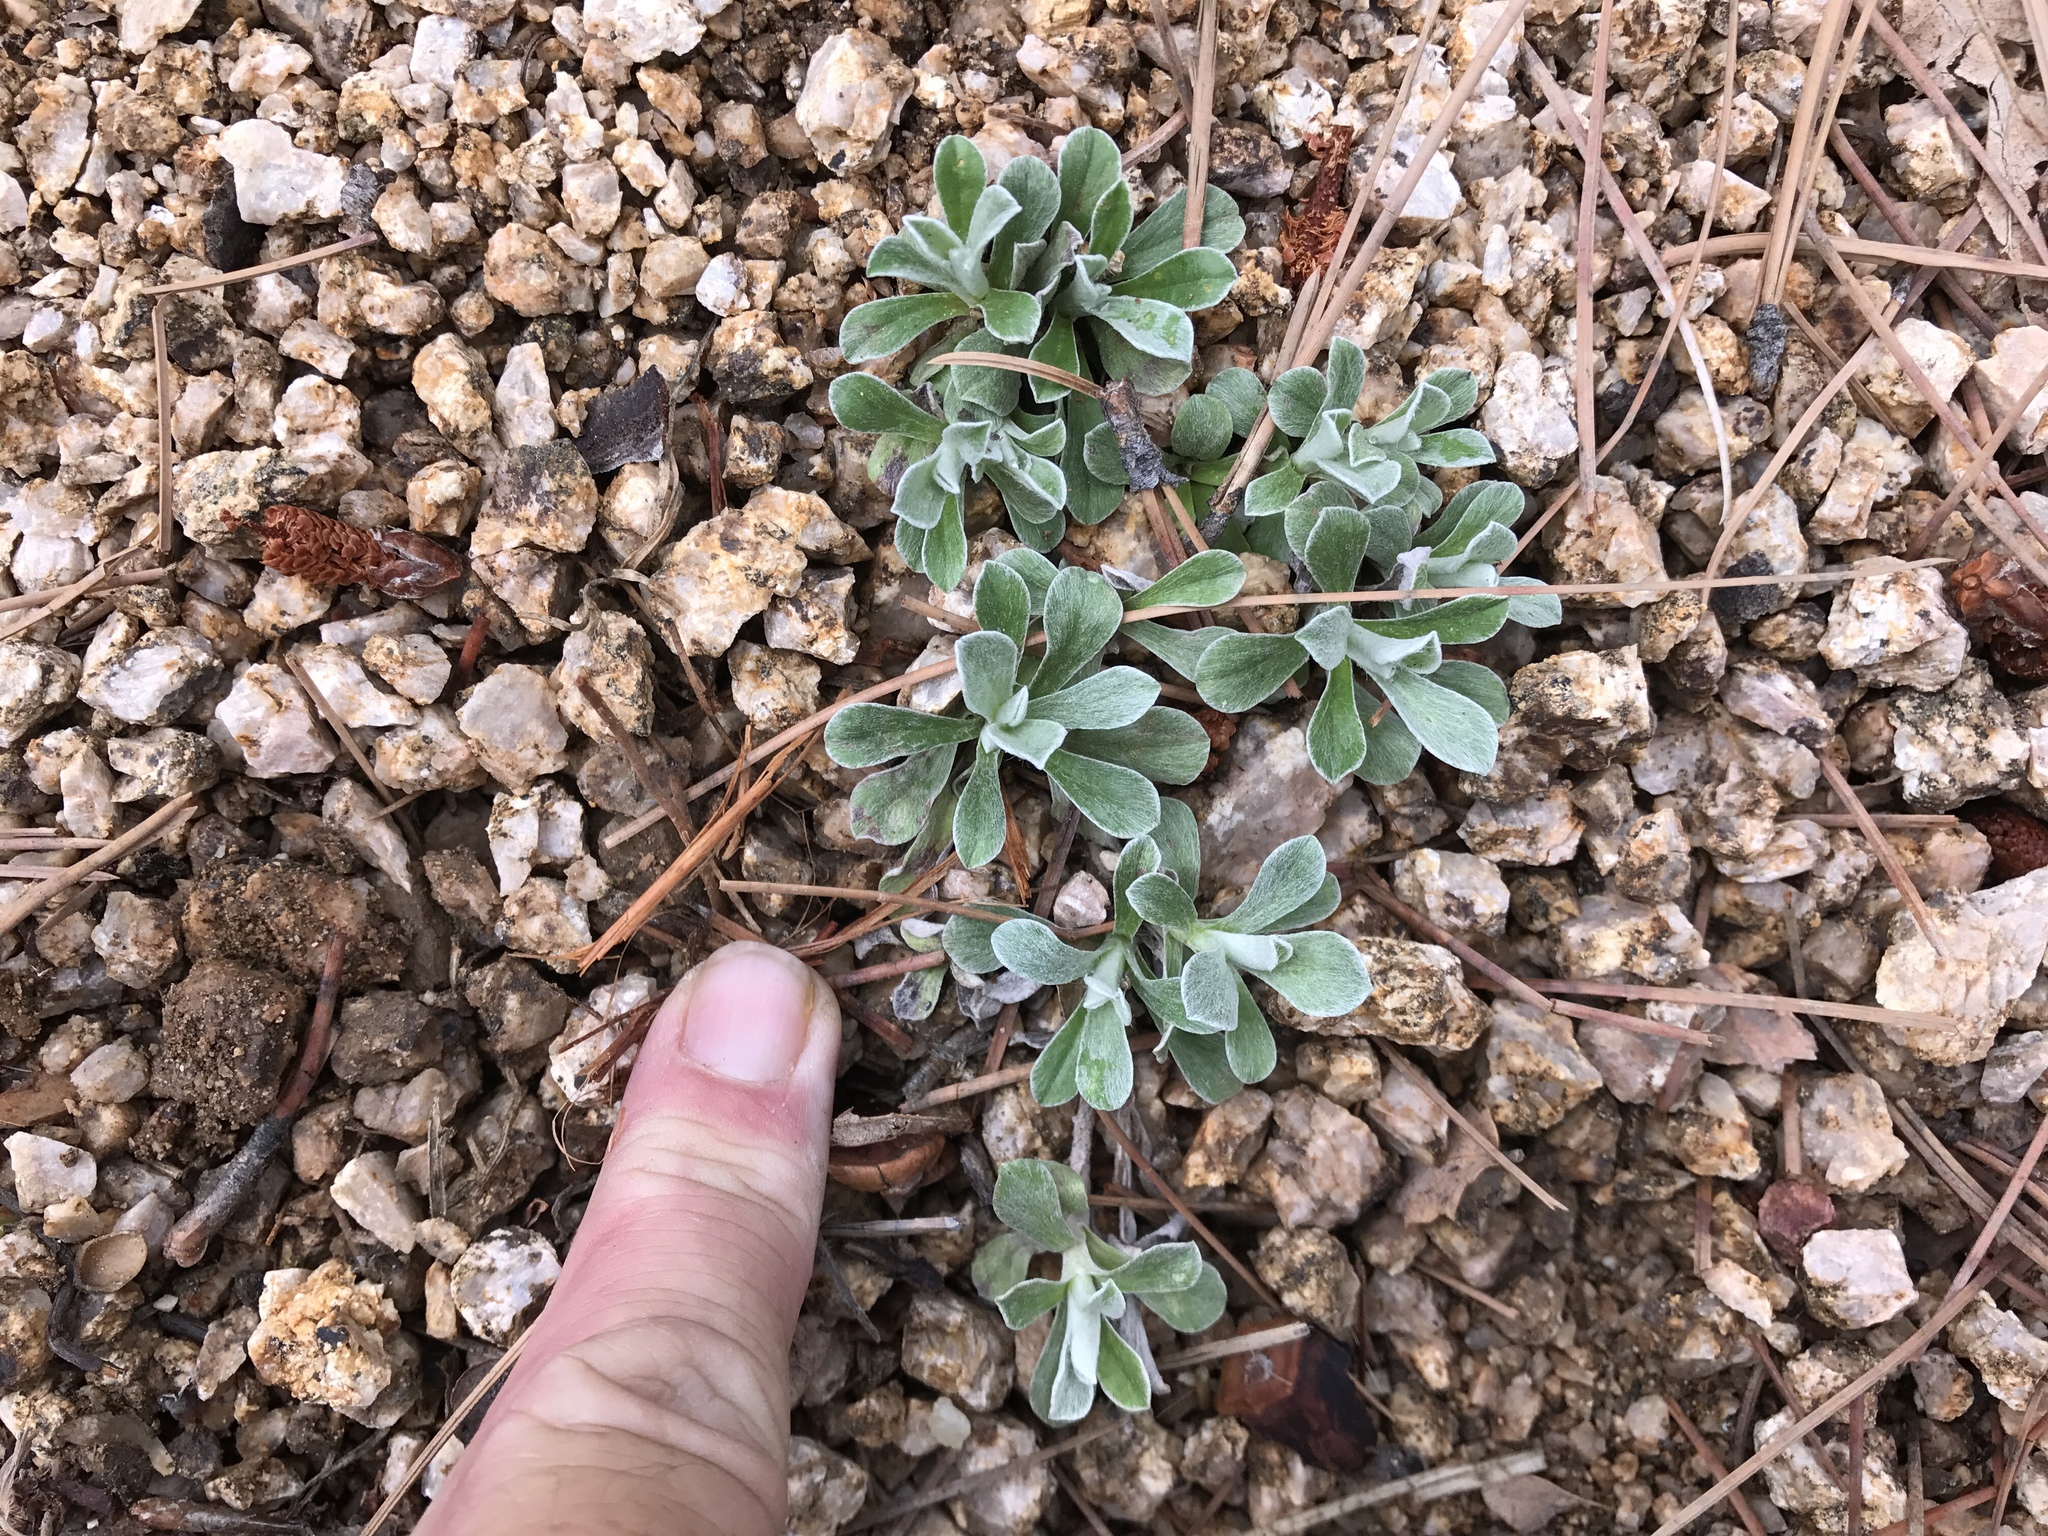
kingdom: Plantae
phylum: Tracheophyta
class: Magnoliopsida
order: Asterales
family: Asteraceae
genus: Antennaria
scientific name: Antennaria marginata
